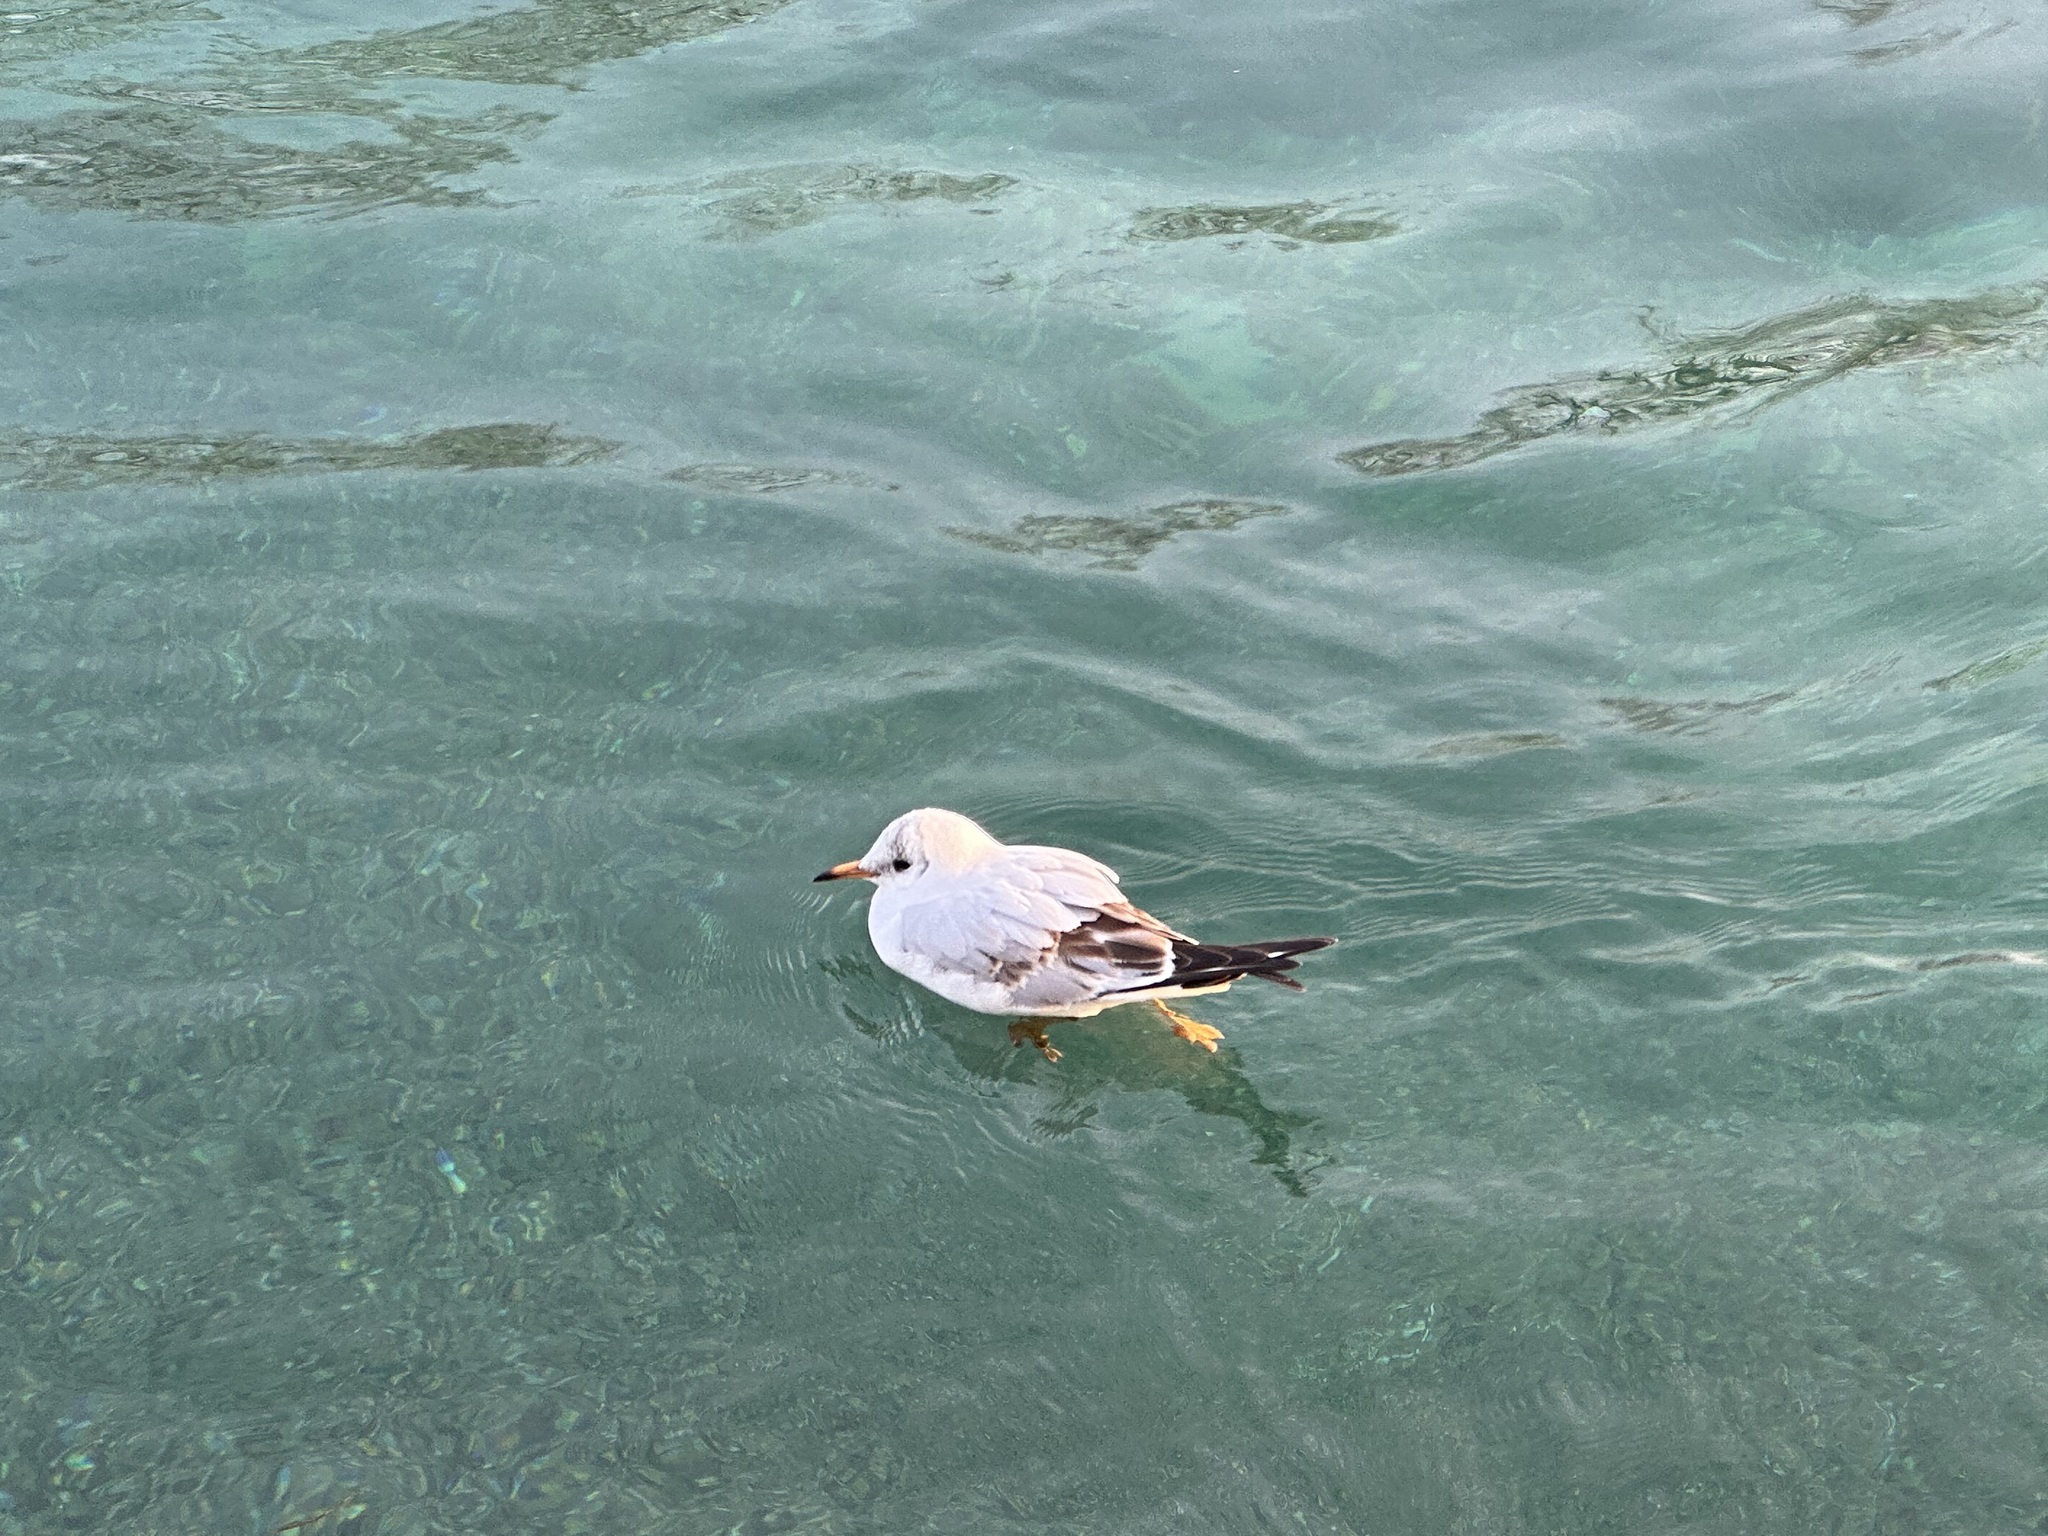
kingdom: Animalia
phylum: Chordata
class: Aves
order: Charadriiformes
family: Laridae
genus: Chroicocephalus
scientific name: Chroicocephalus ridibundus
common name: Black-headed gull
